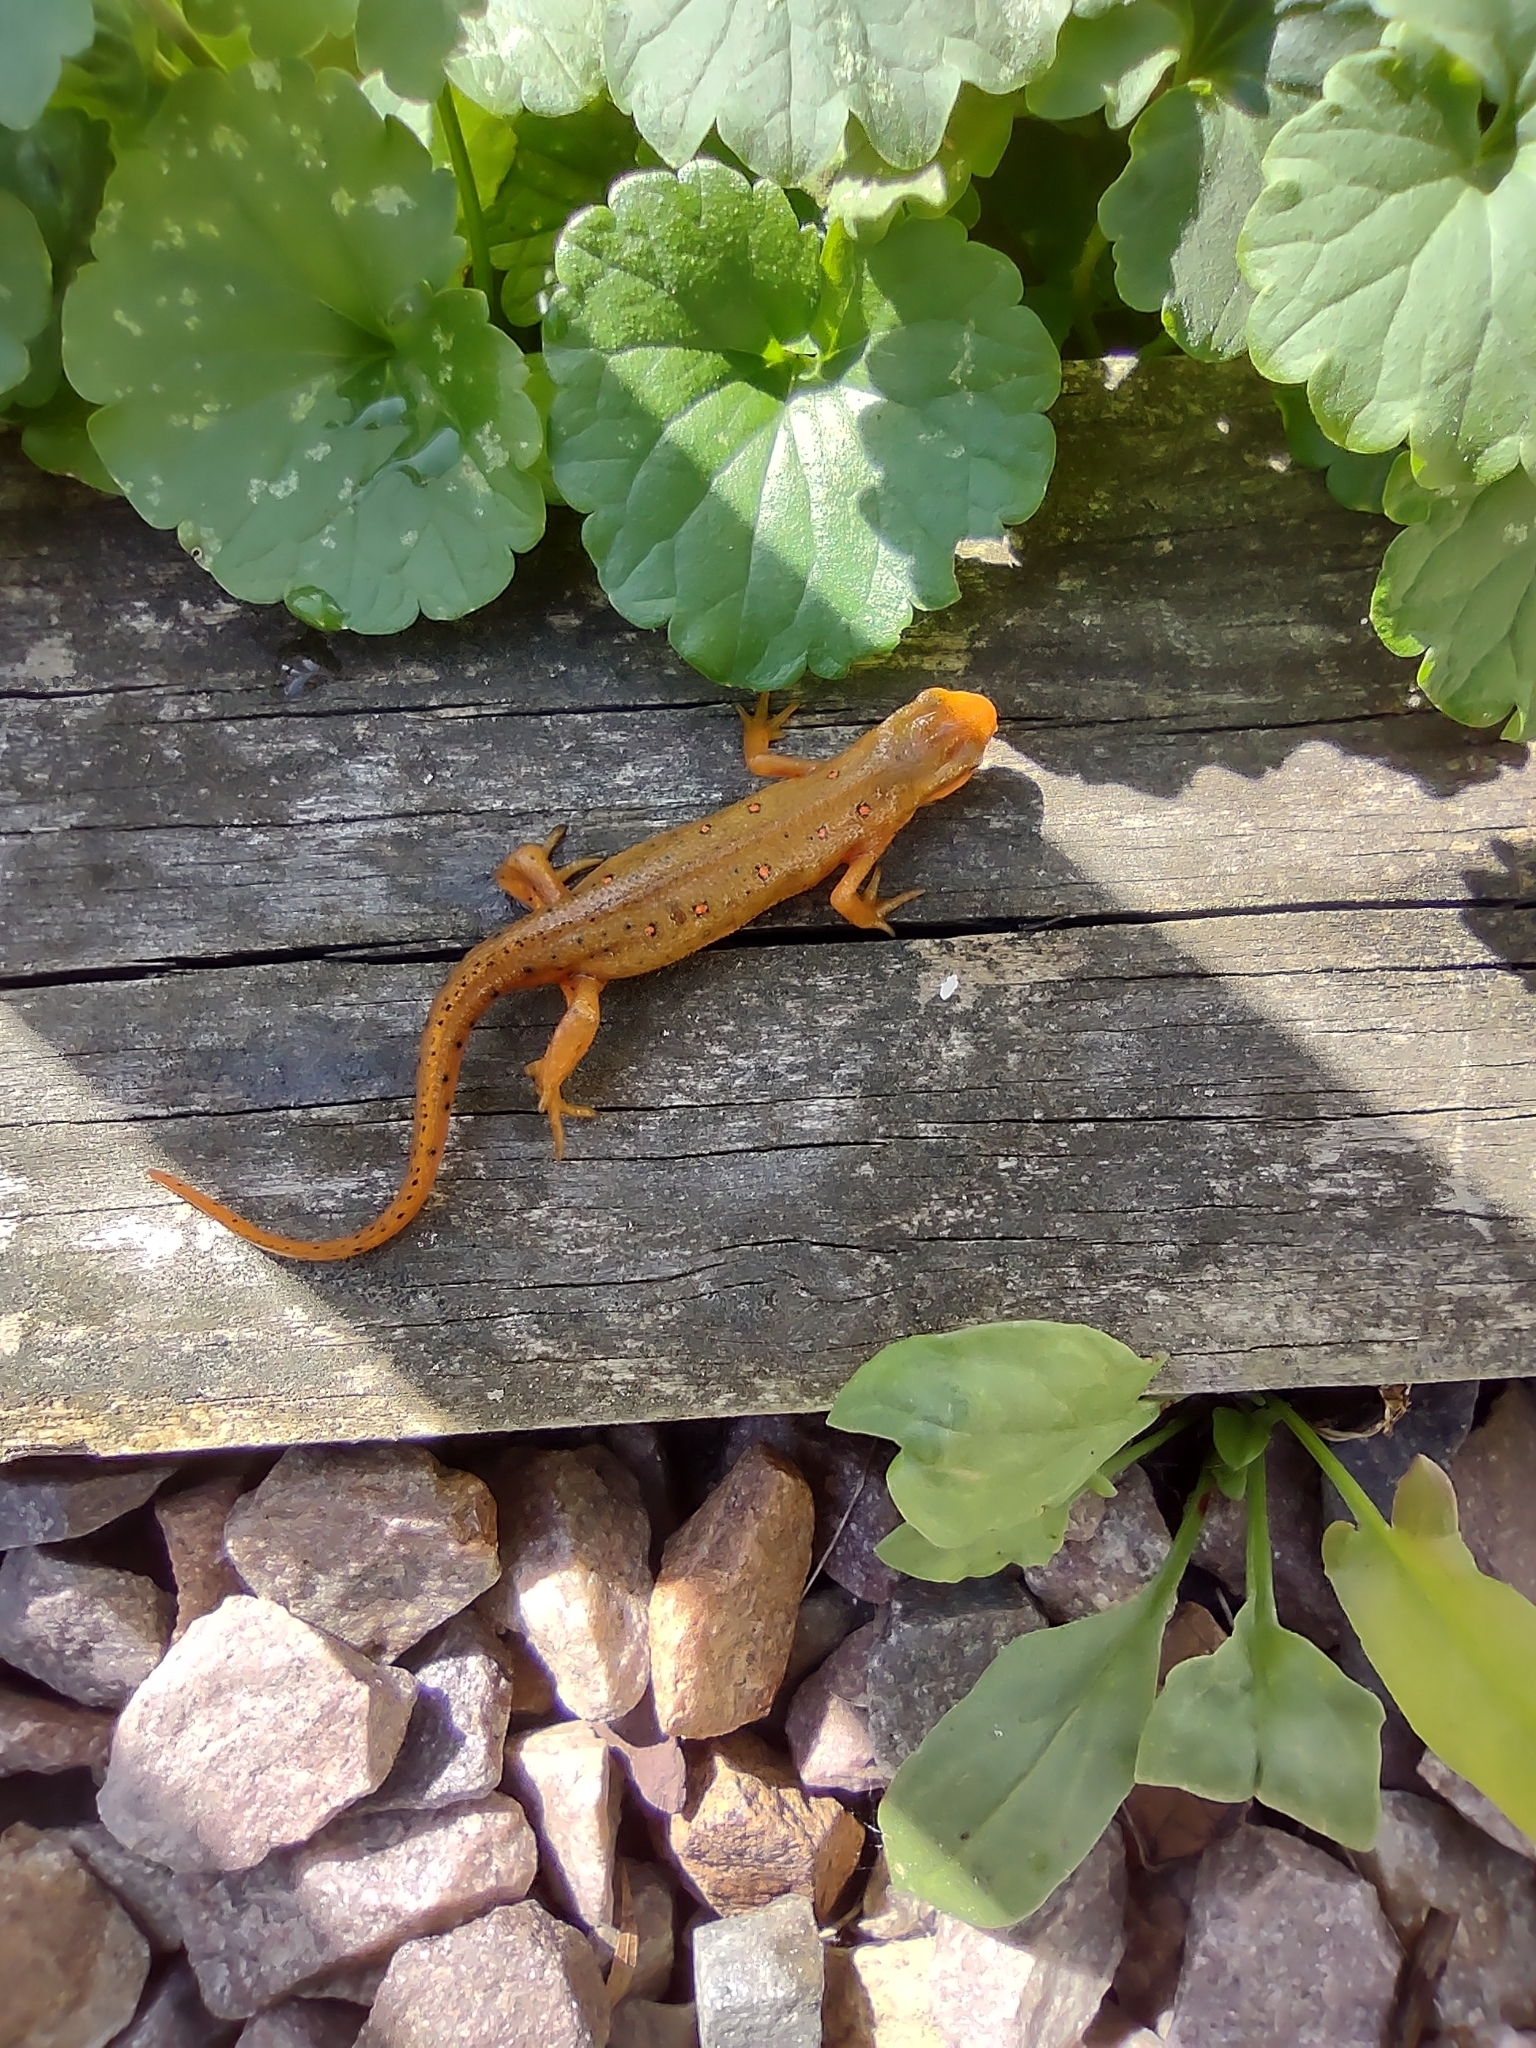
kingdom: Animalia
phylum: Chordata
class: Amphibia
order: Caudata
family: Salamandridae
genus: Notophthalmus
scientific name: Notophthalmus viridescens
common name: Eastern newt
